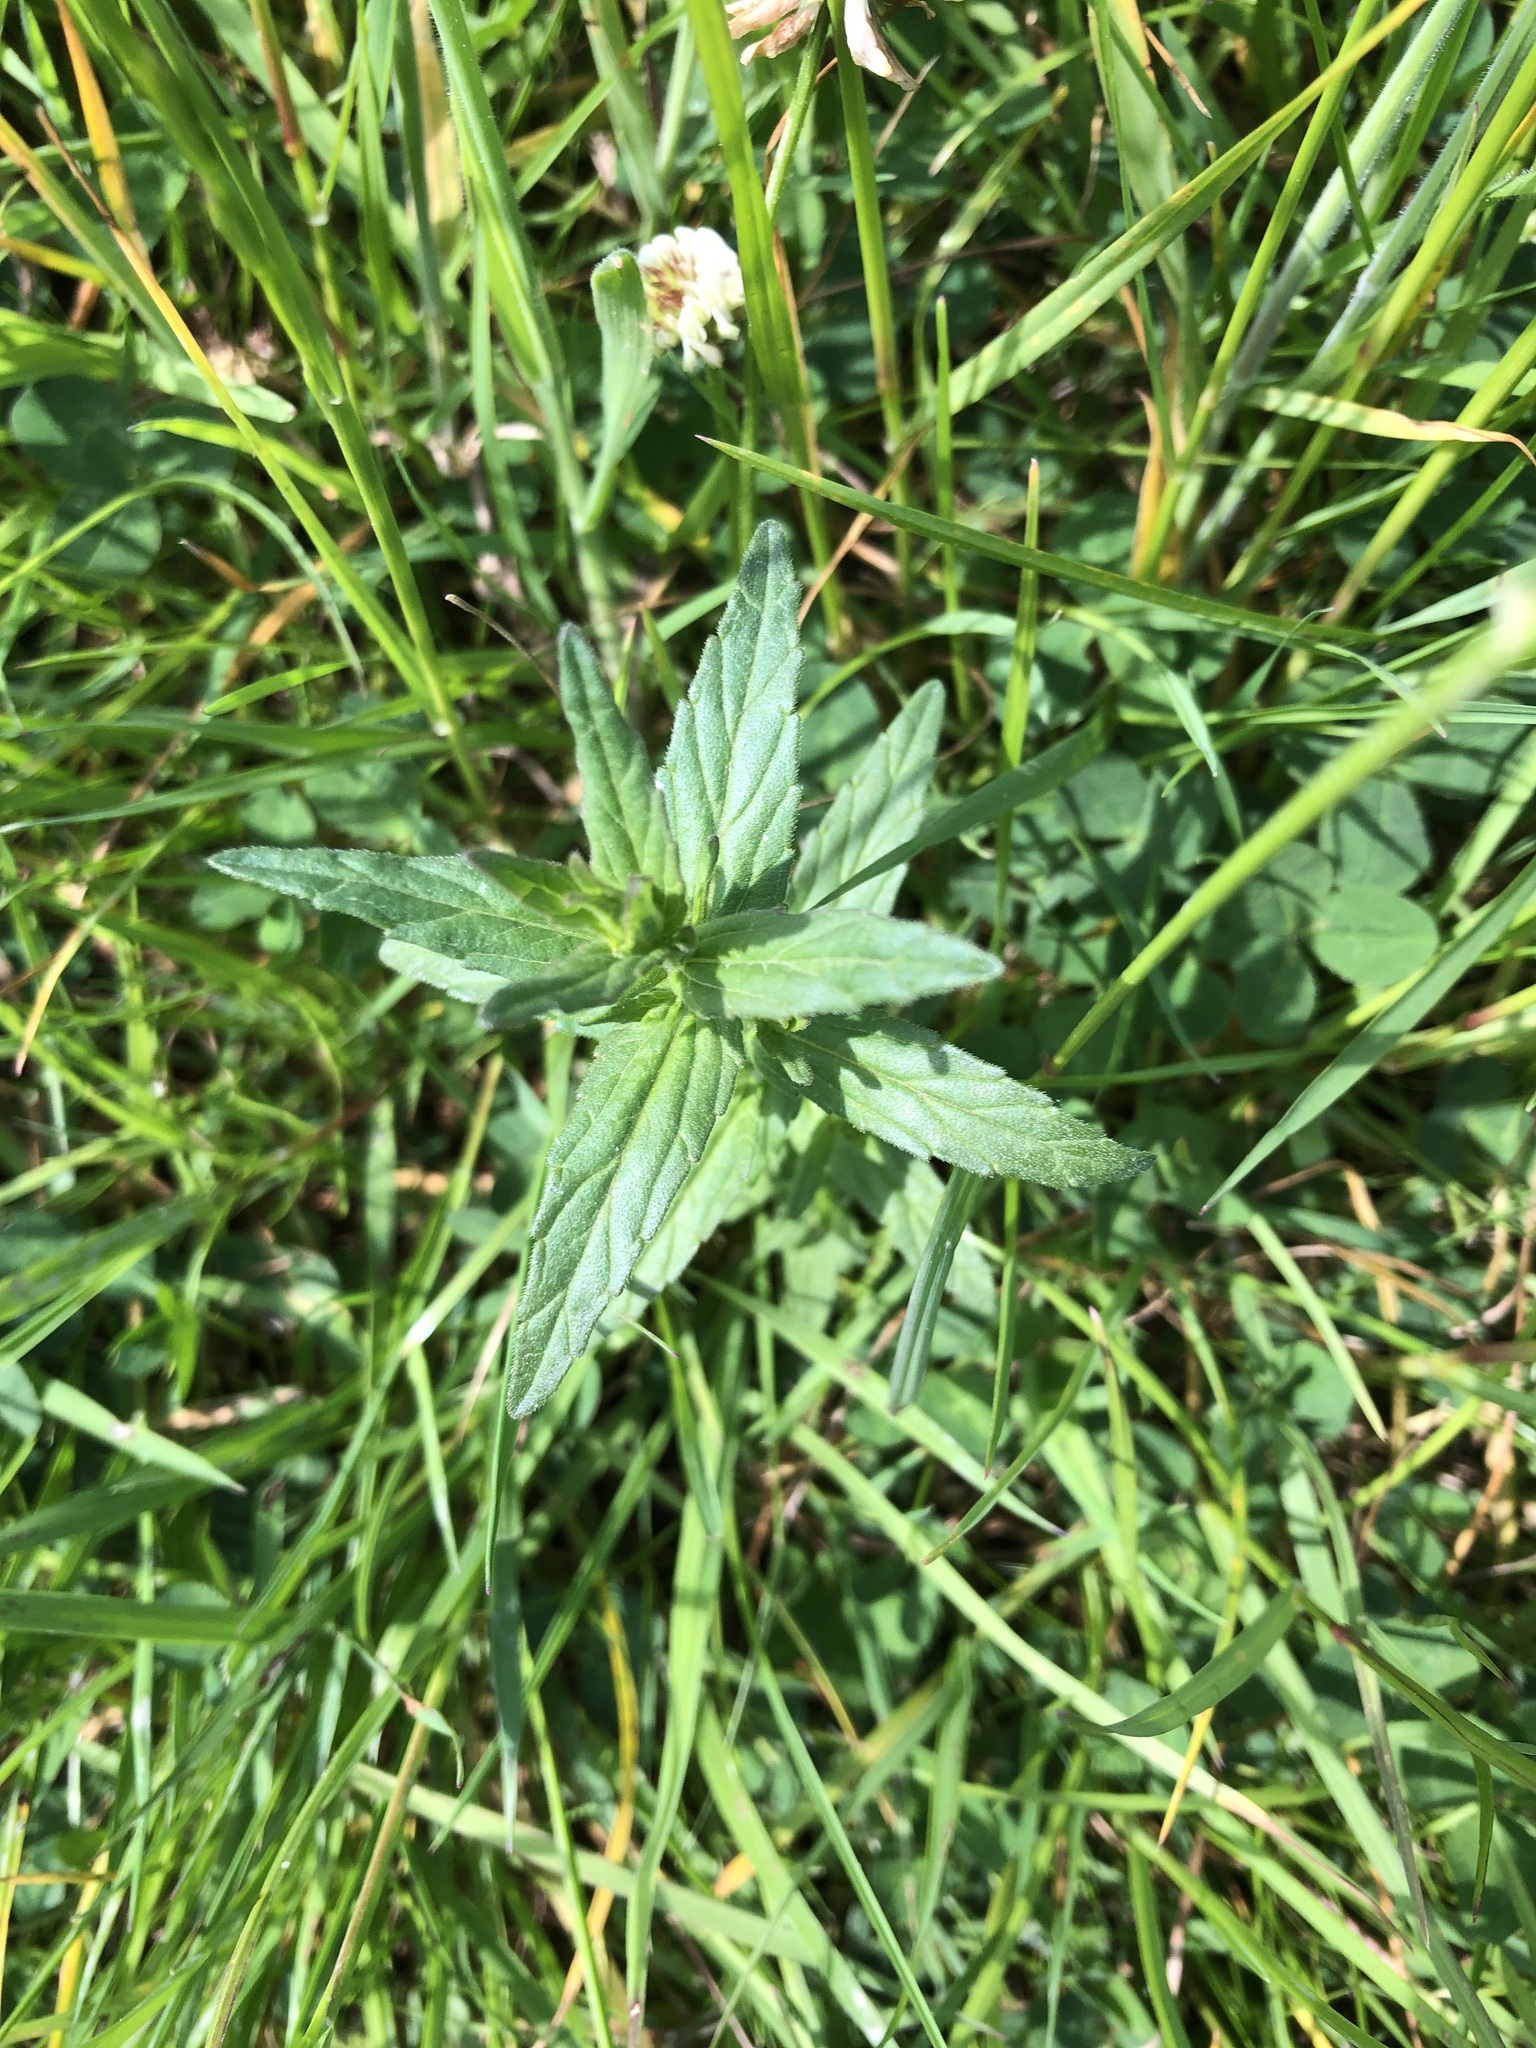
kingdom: Plantae
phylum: Tracheophyta
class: Magnoliopsida
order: Lamiales
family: Orobanchaceae
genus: Odontites
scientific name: Odontites vernus
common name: Red bartsia
